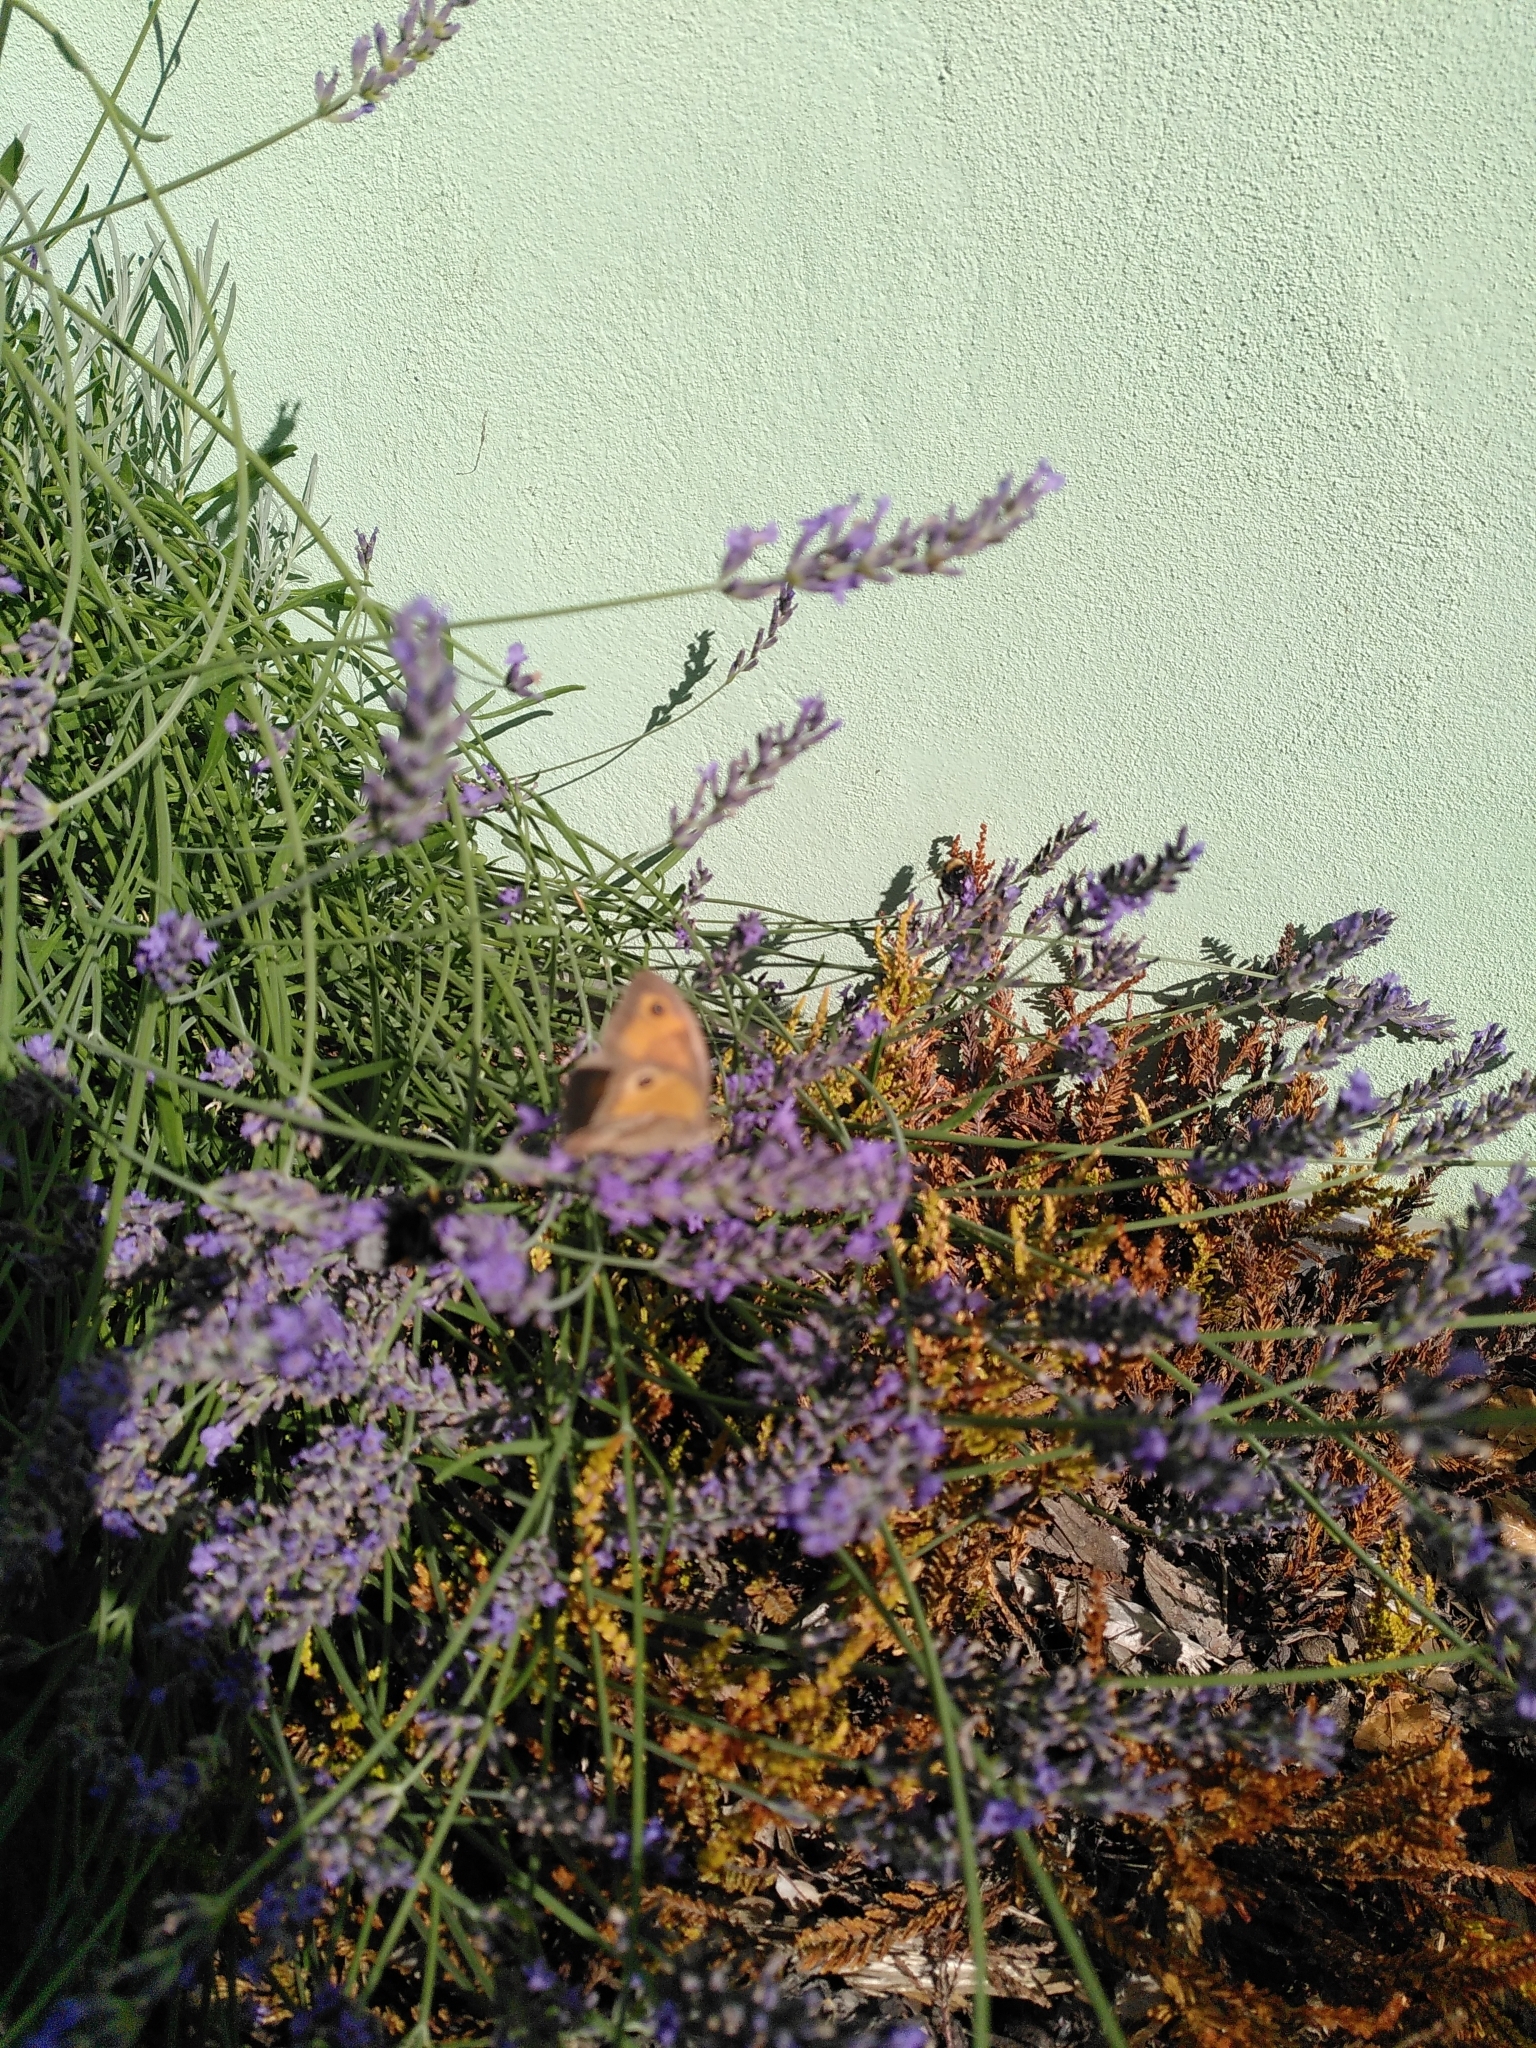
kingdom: Animalia
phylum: Arthropoda
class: Insecta
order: Lepidoptera
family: Nymphalidae
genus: Maniola
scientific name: Maniola jurtina
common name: Meadow brown
